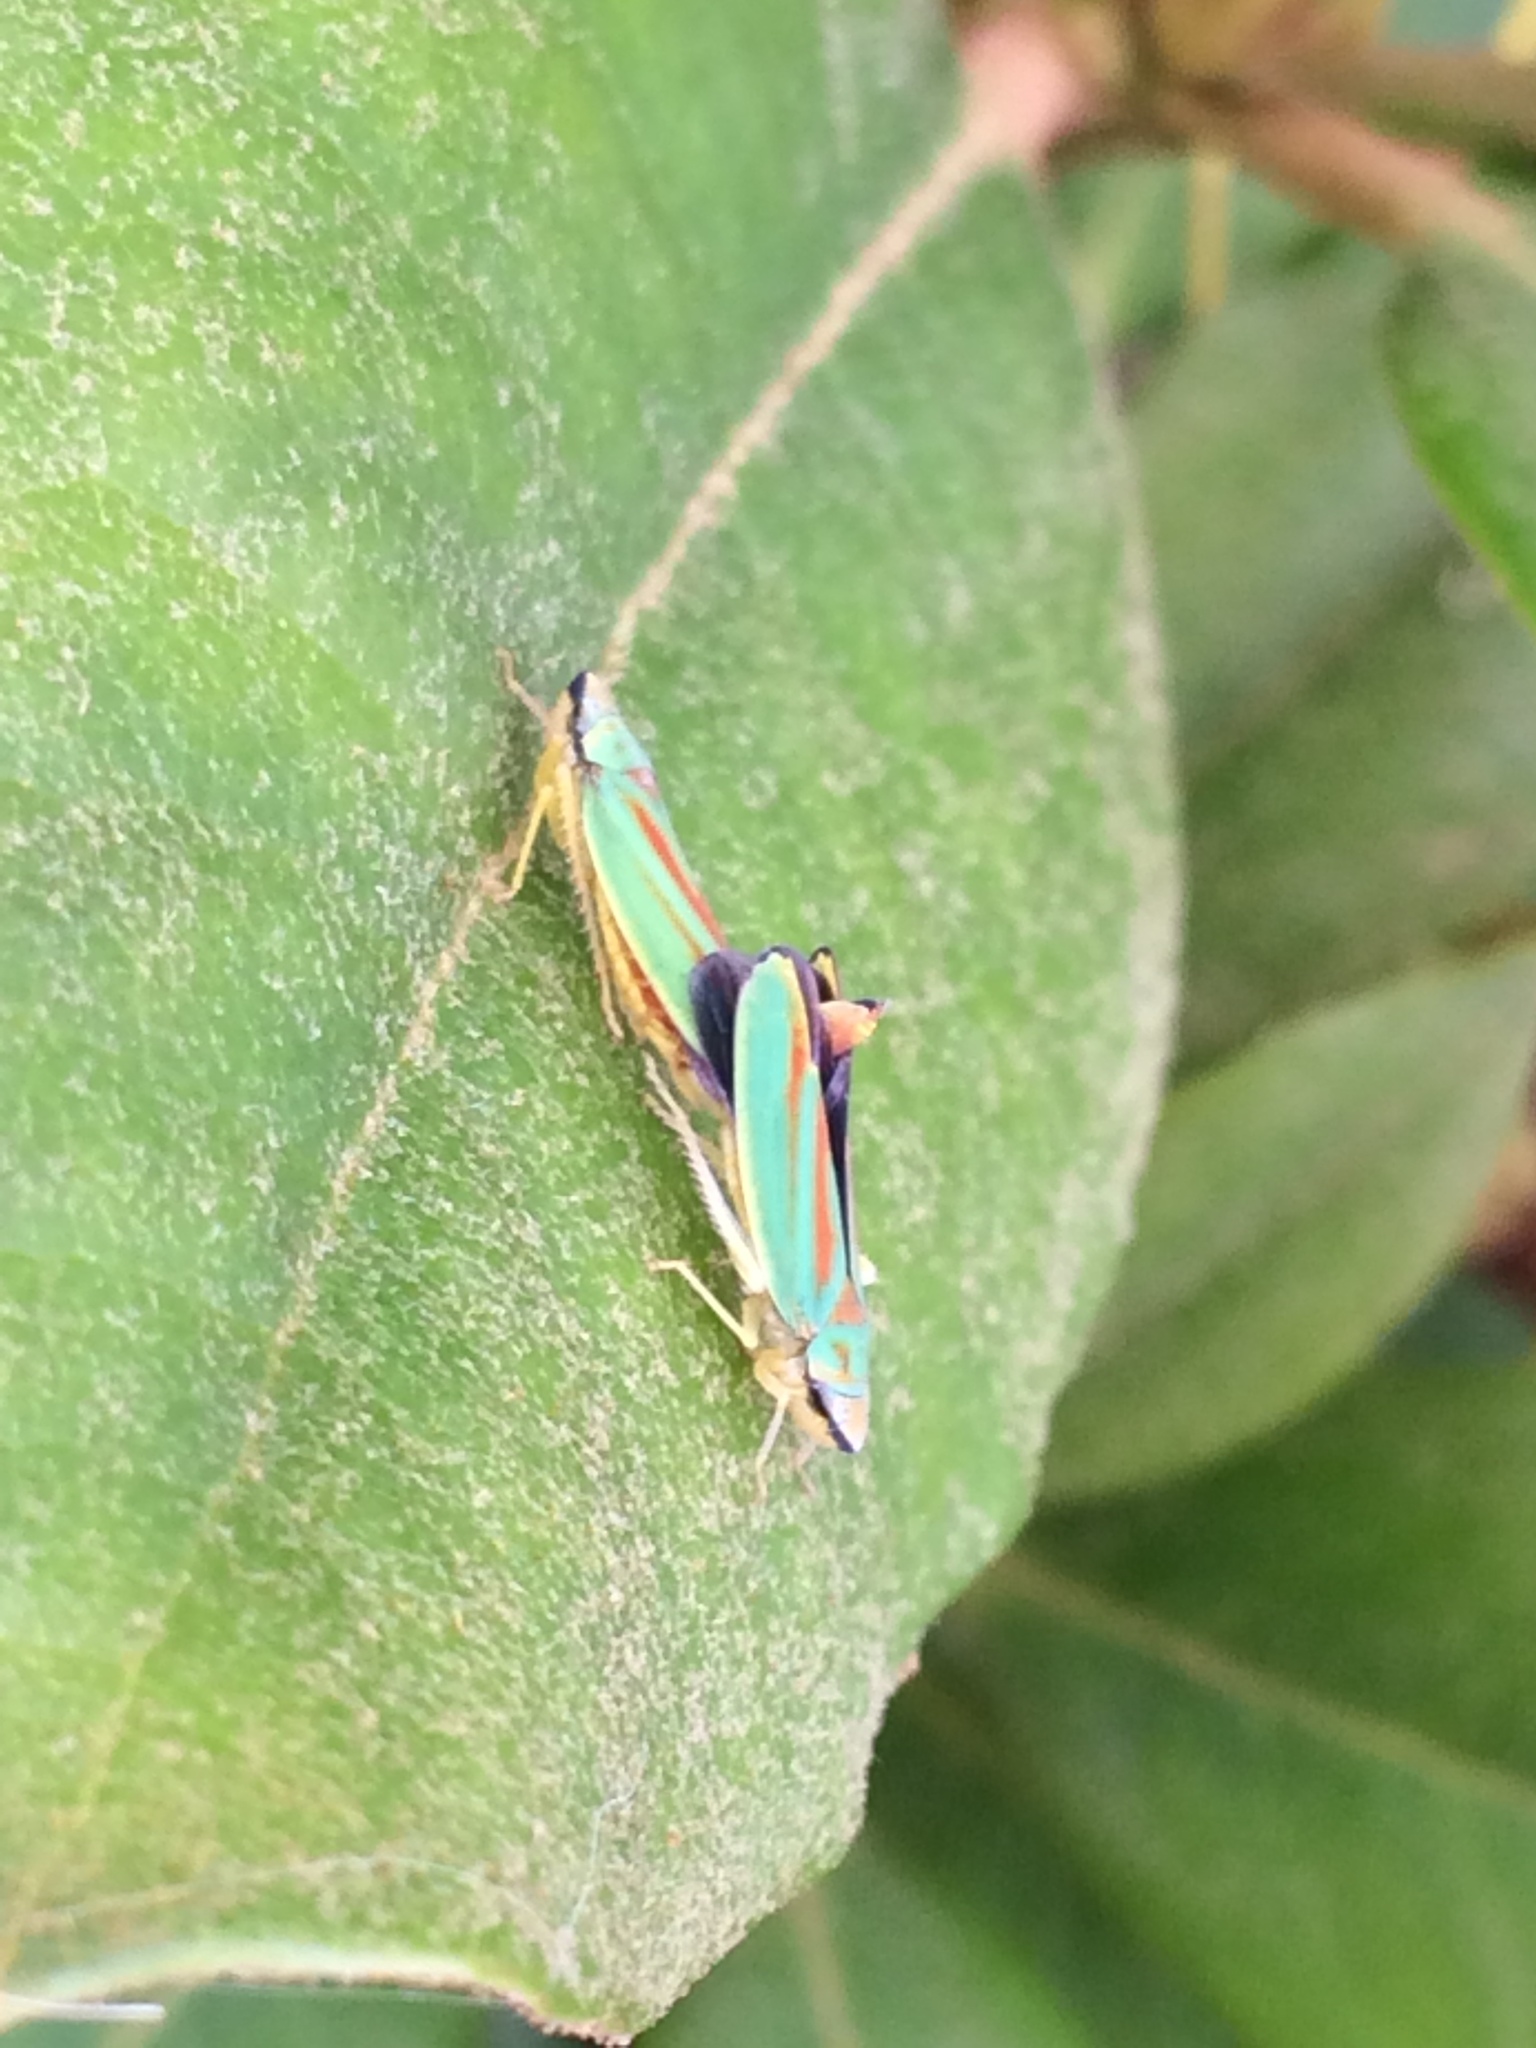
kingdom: Animalia
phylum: Arthropoda
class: Insecta
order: Hemiptera
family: Cicadellidae
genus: Graphocephala
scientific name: Graphocephala fennahi
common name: Rhododendron leafhopper
